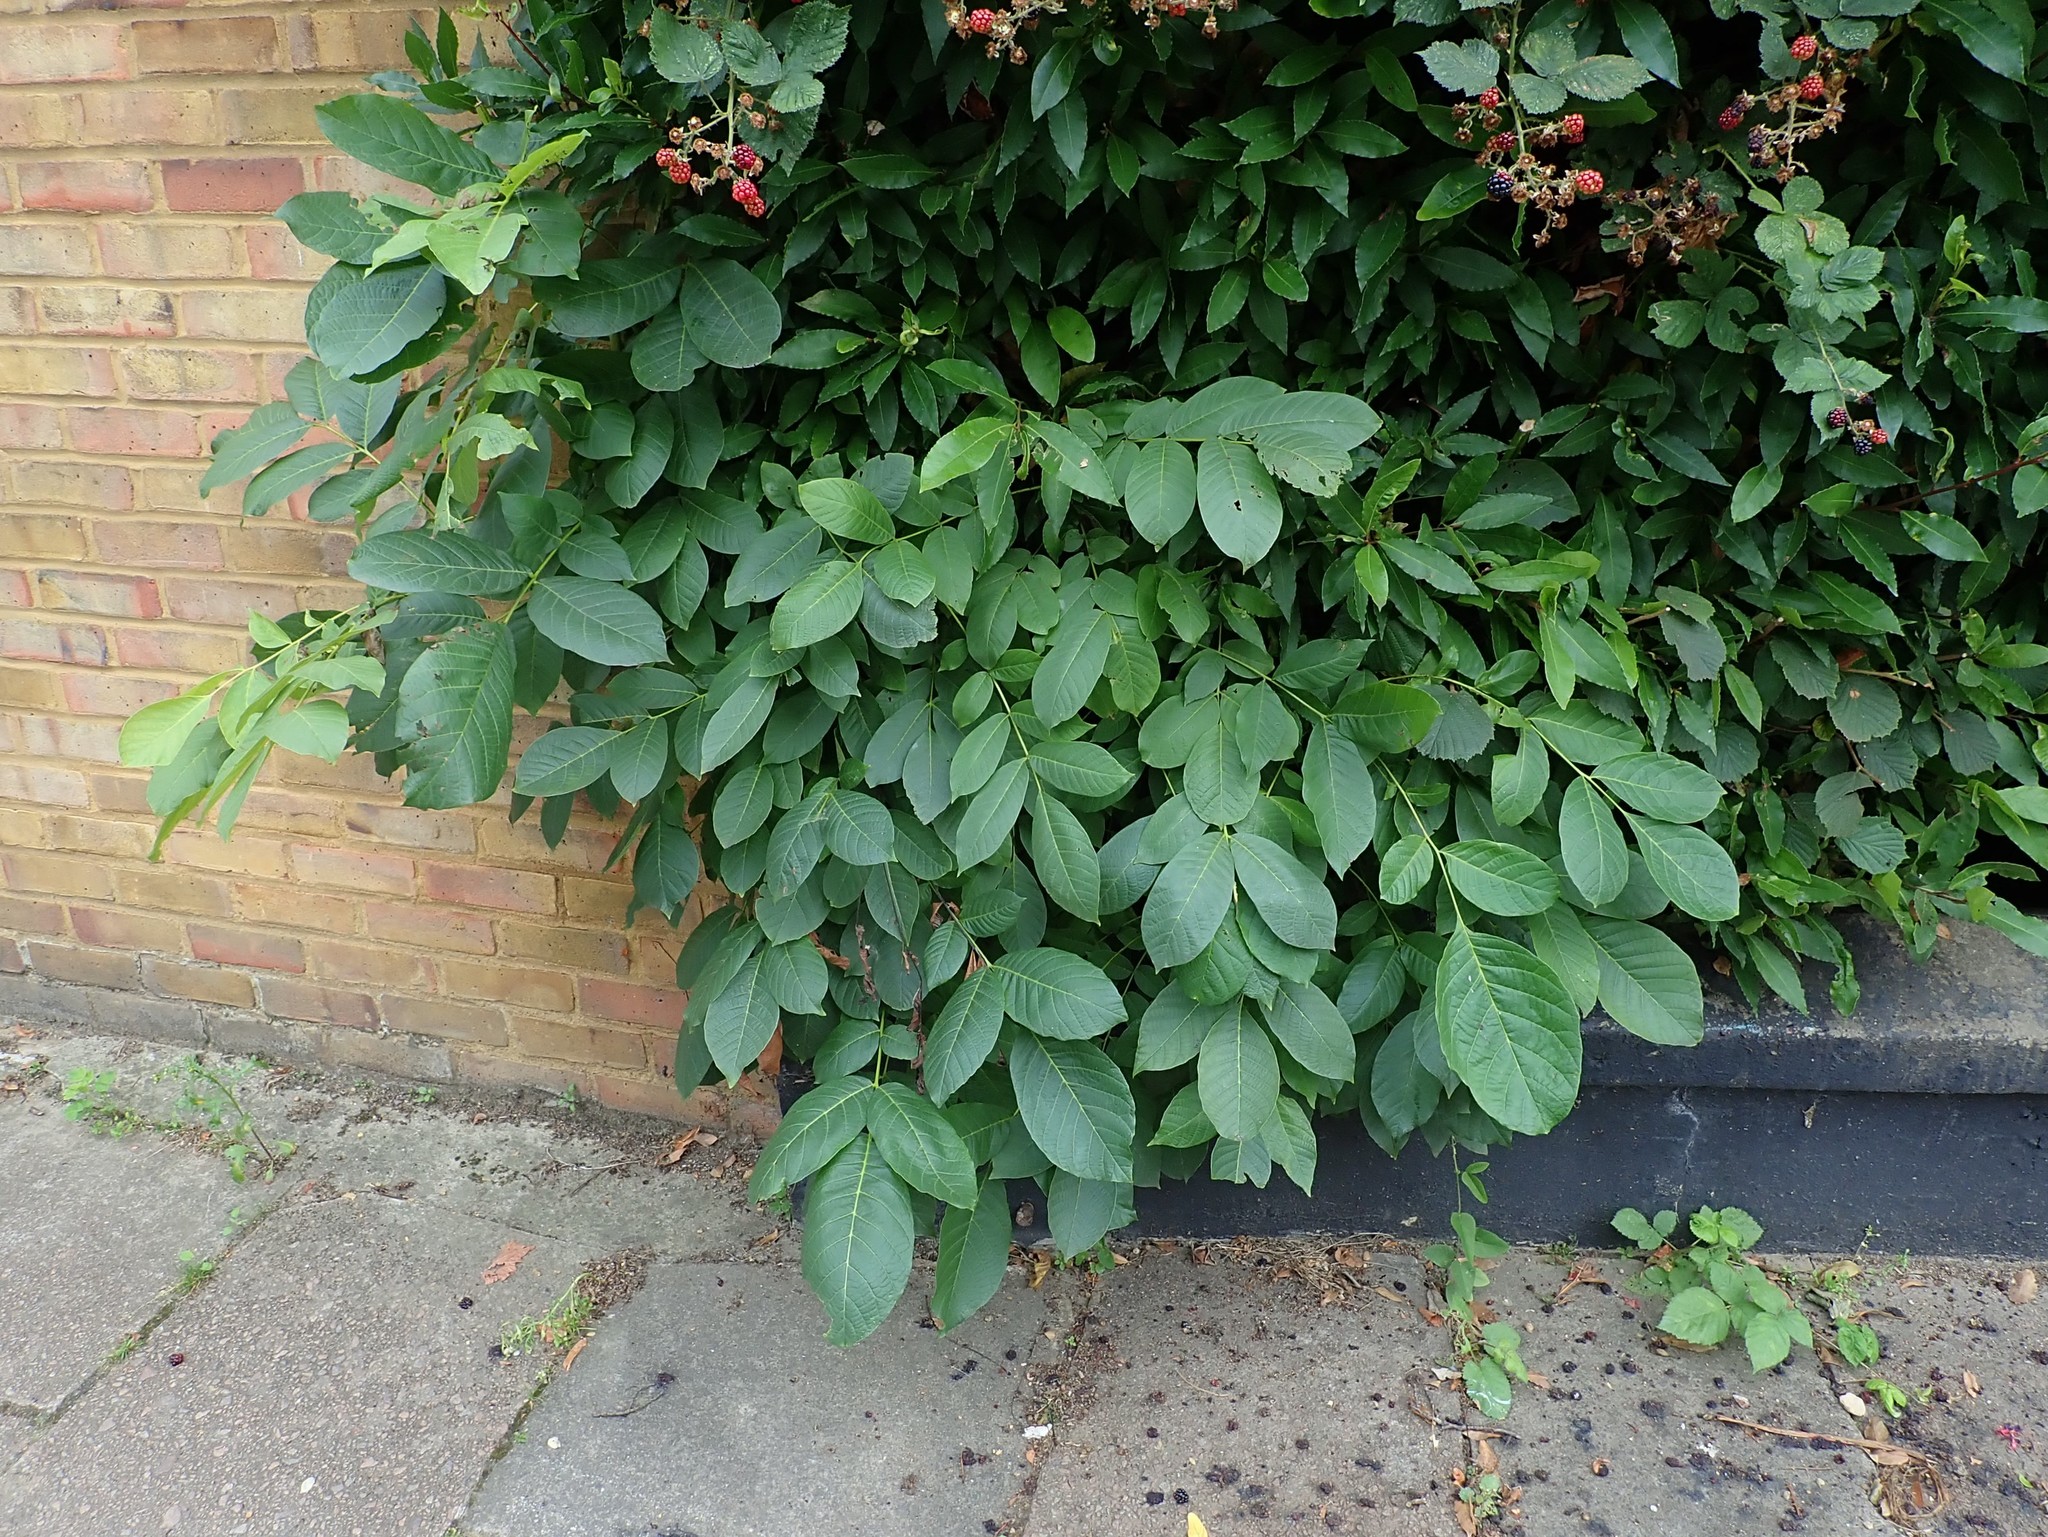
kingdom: Plantae
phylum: Tracheophyta
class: Magnoliopsida
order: Fagales
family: Juglandaceae
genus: Juglans
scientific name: Juglans regia
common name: Walnut
